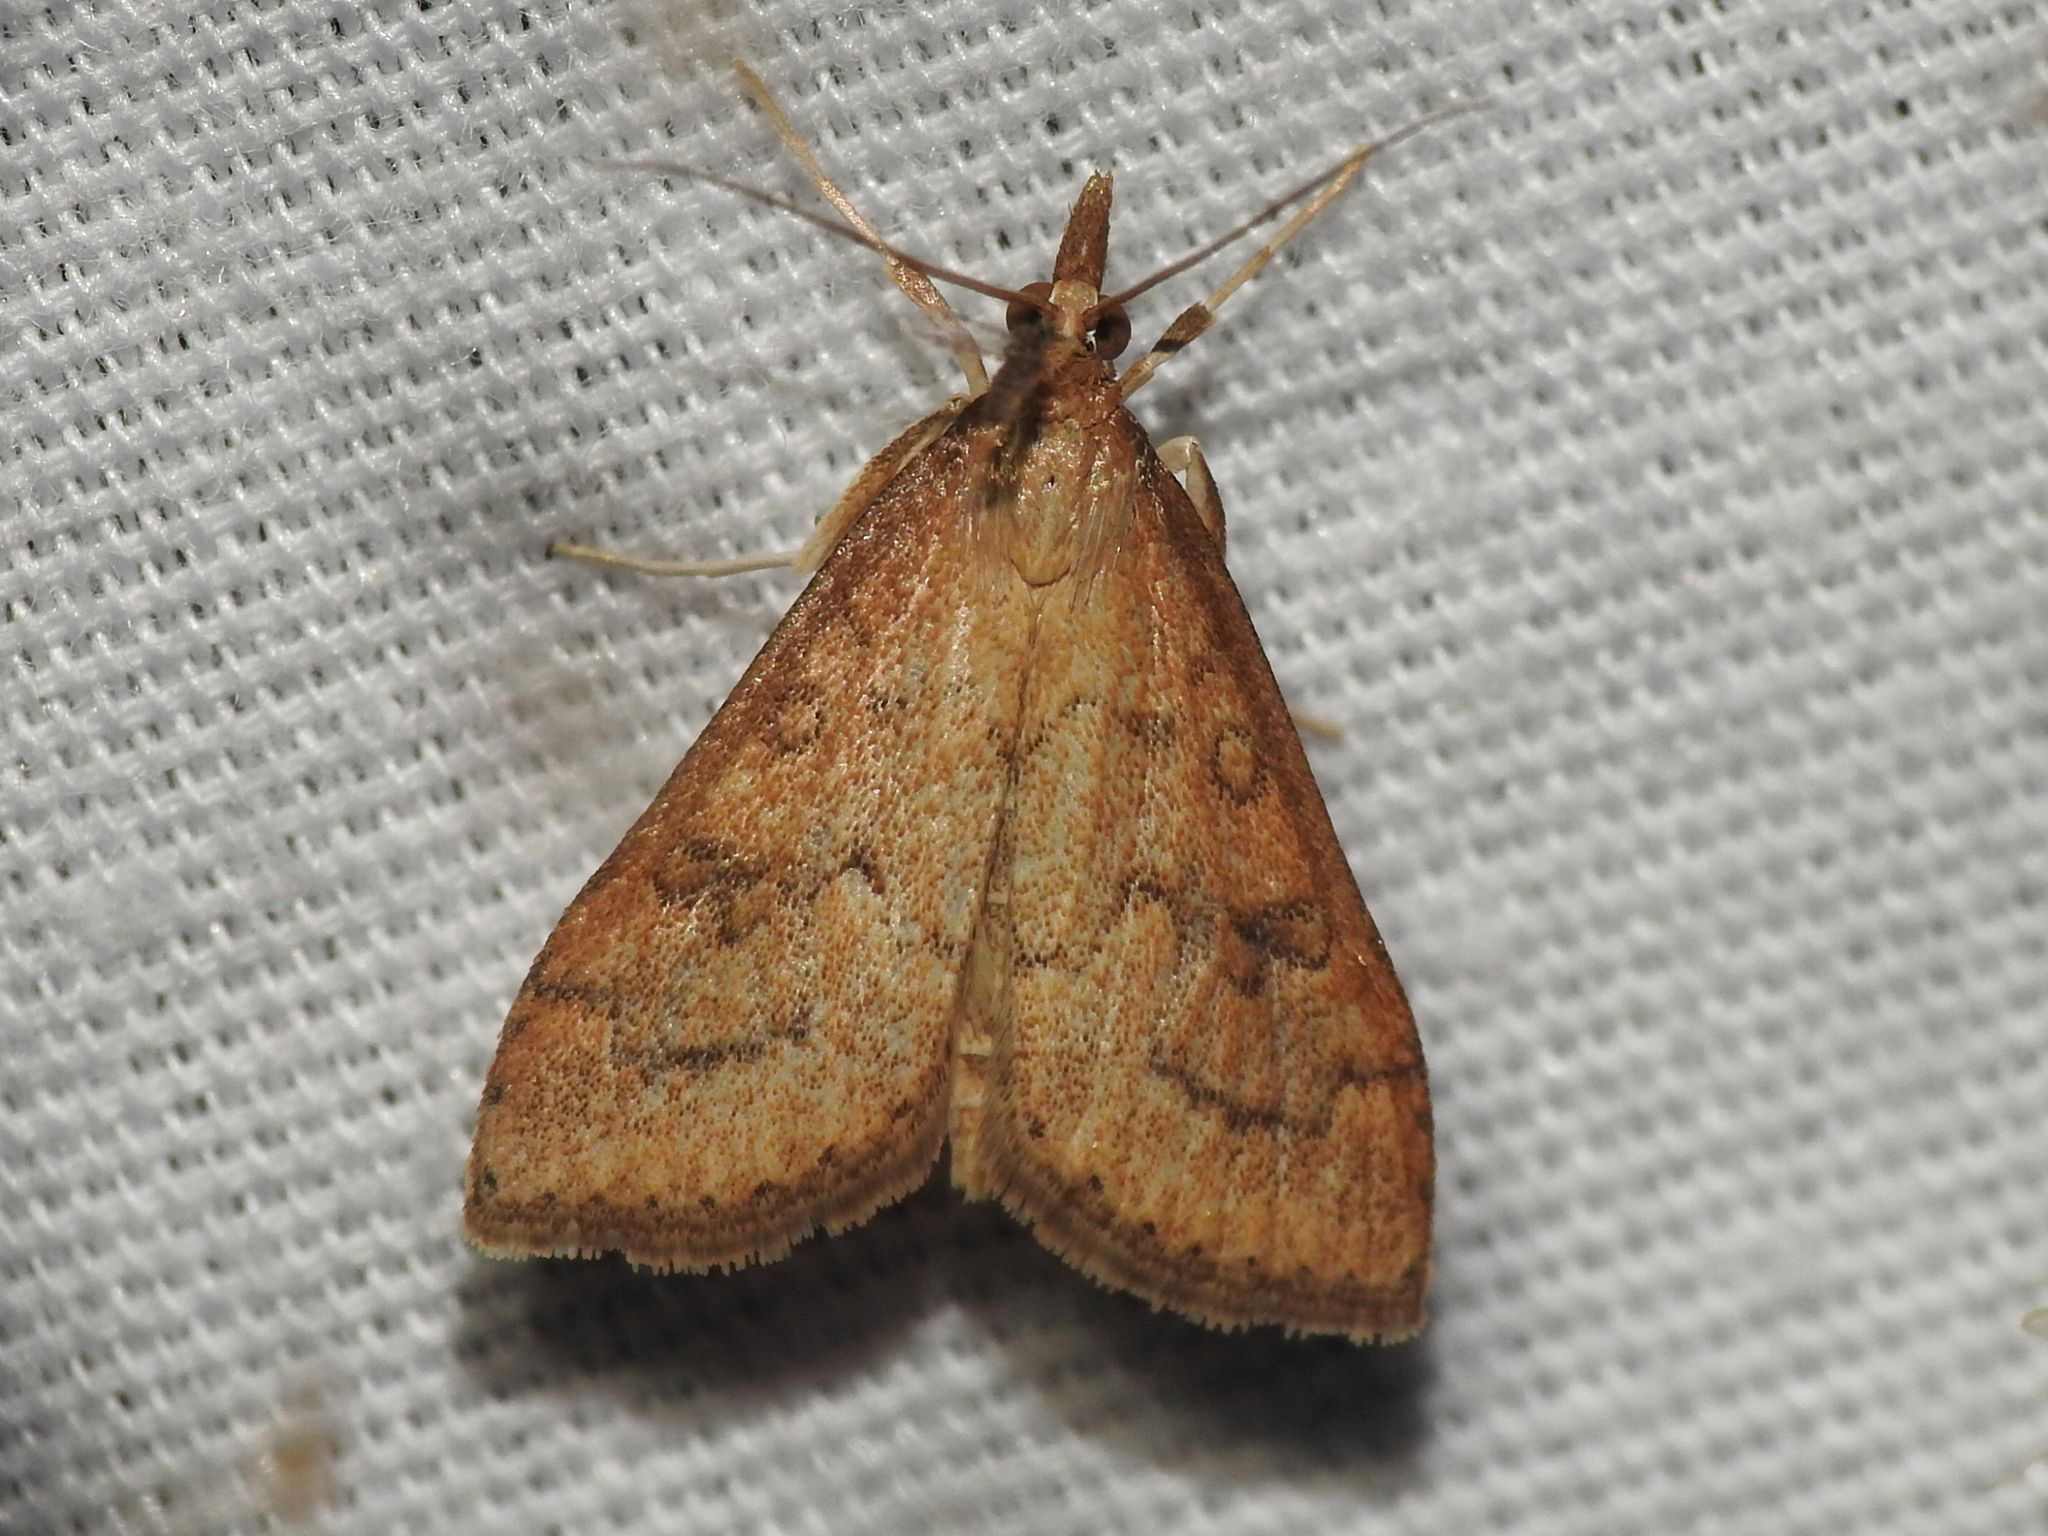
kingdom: Animalia
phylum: Arthropoda
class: Insecta
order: Lepidoptera
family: Crambidae
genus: Udea
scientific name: Udea rubigalis
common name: Celery leaftier moth
